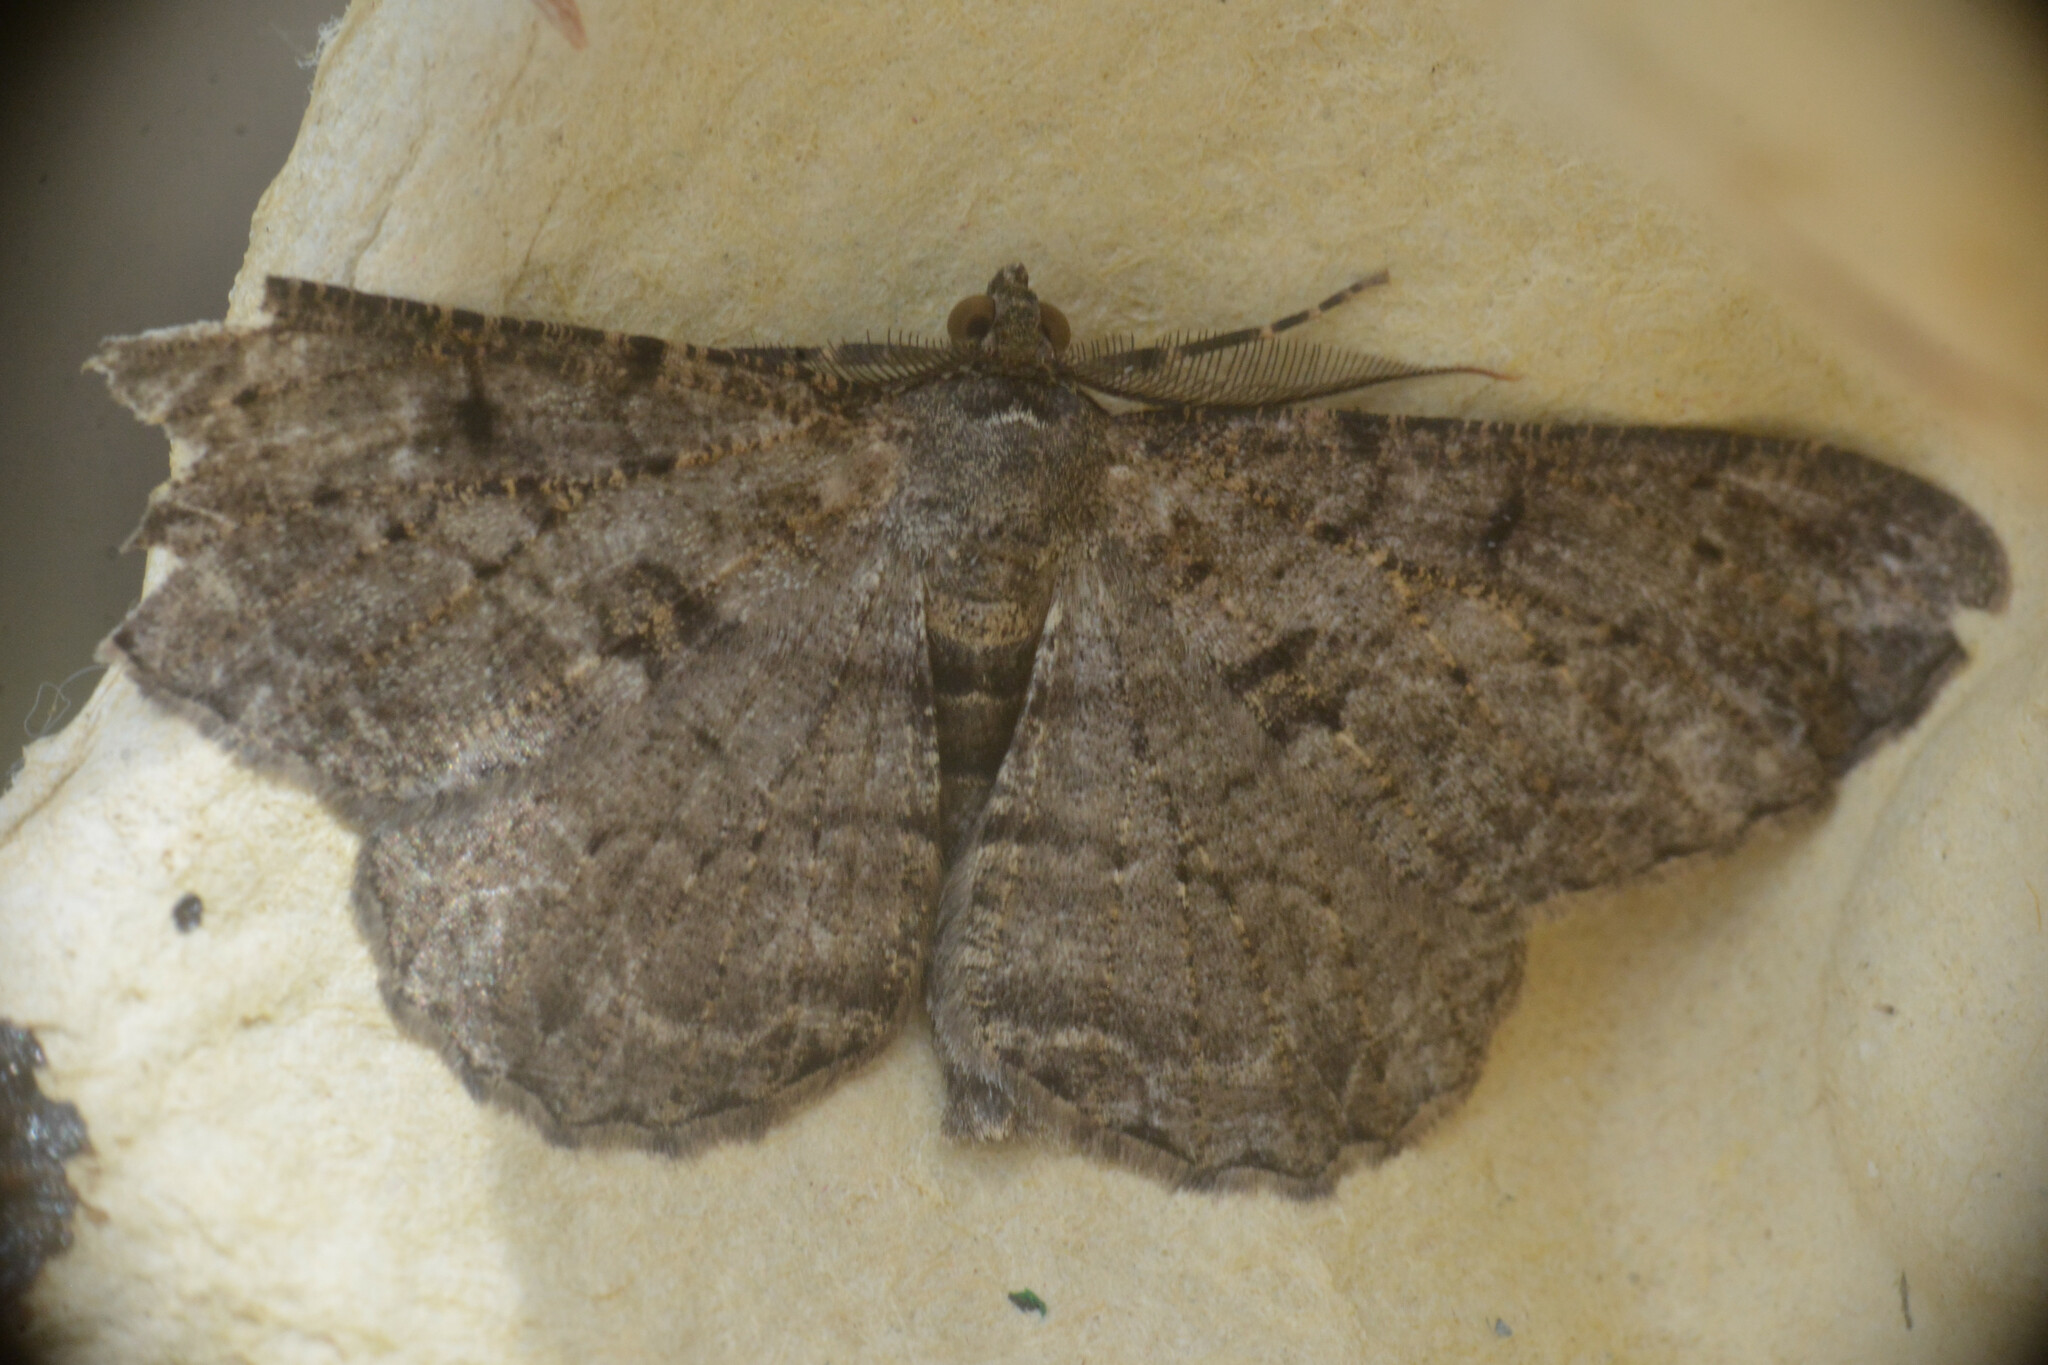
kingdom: Animalia
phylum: Arthropoda
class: Insecta
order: Lepidoptera
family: Geometridae
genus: Peribatodes
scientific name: Peribatodes rhomboidaria
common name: Willow beauty
